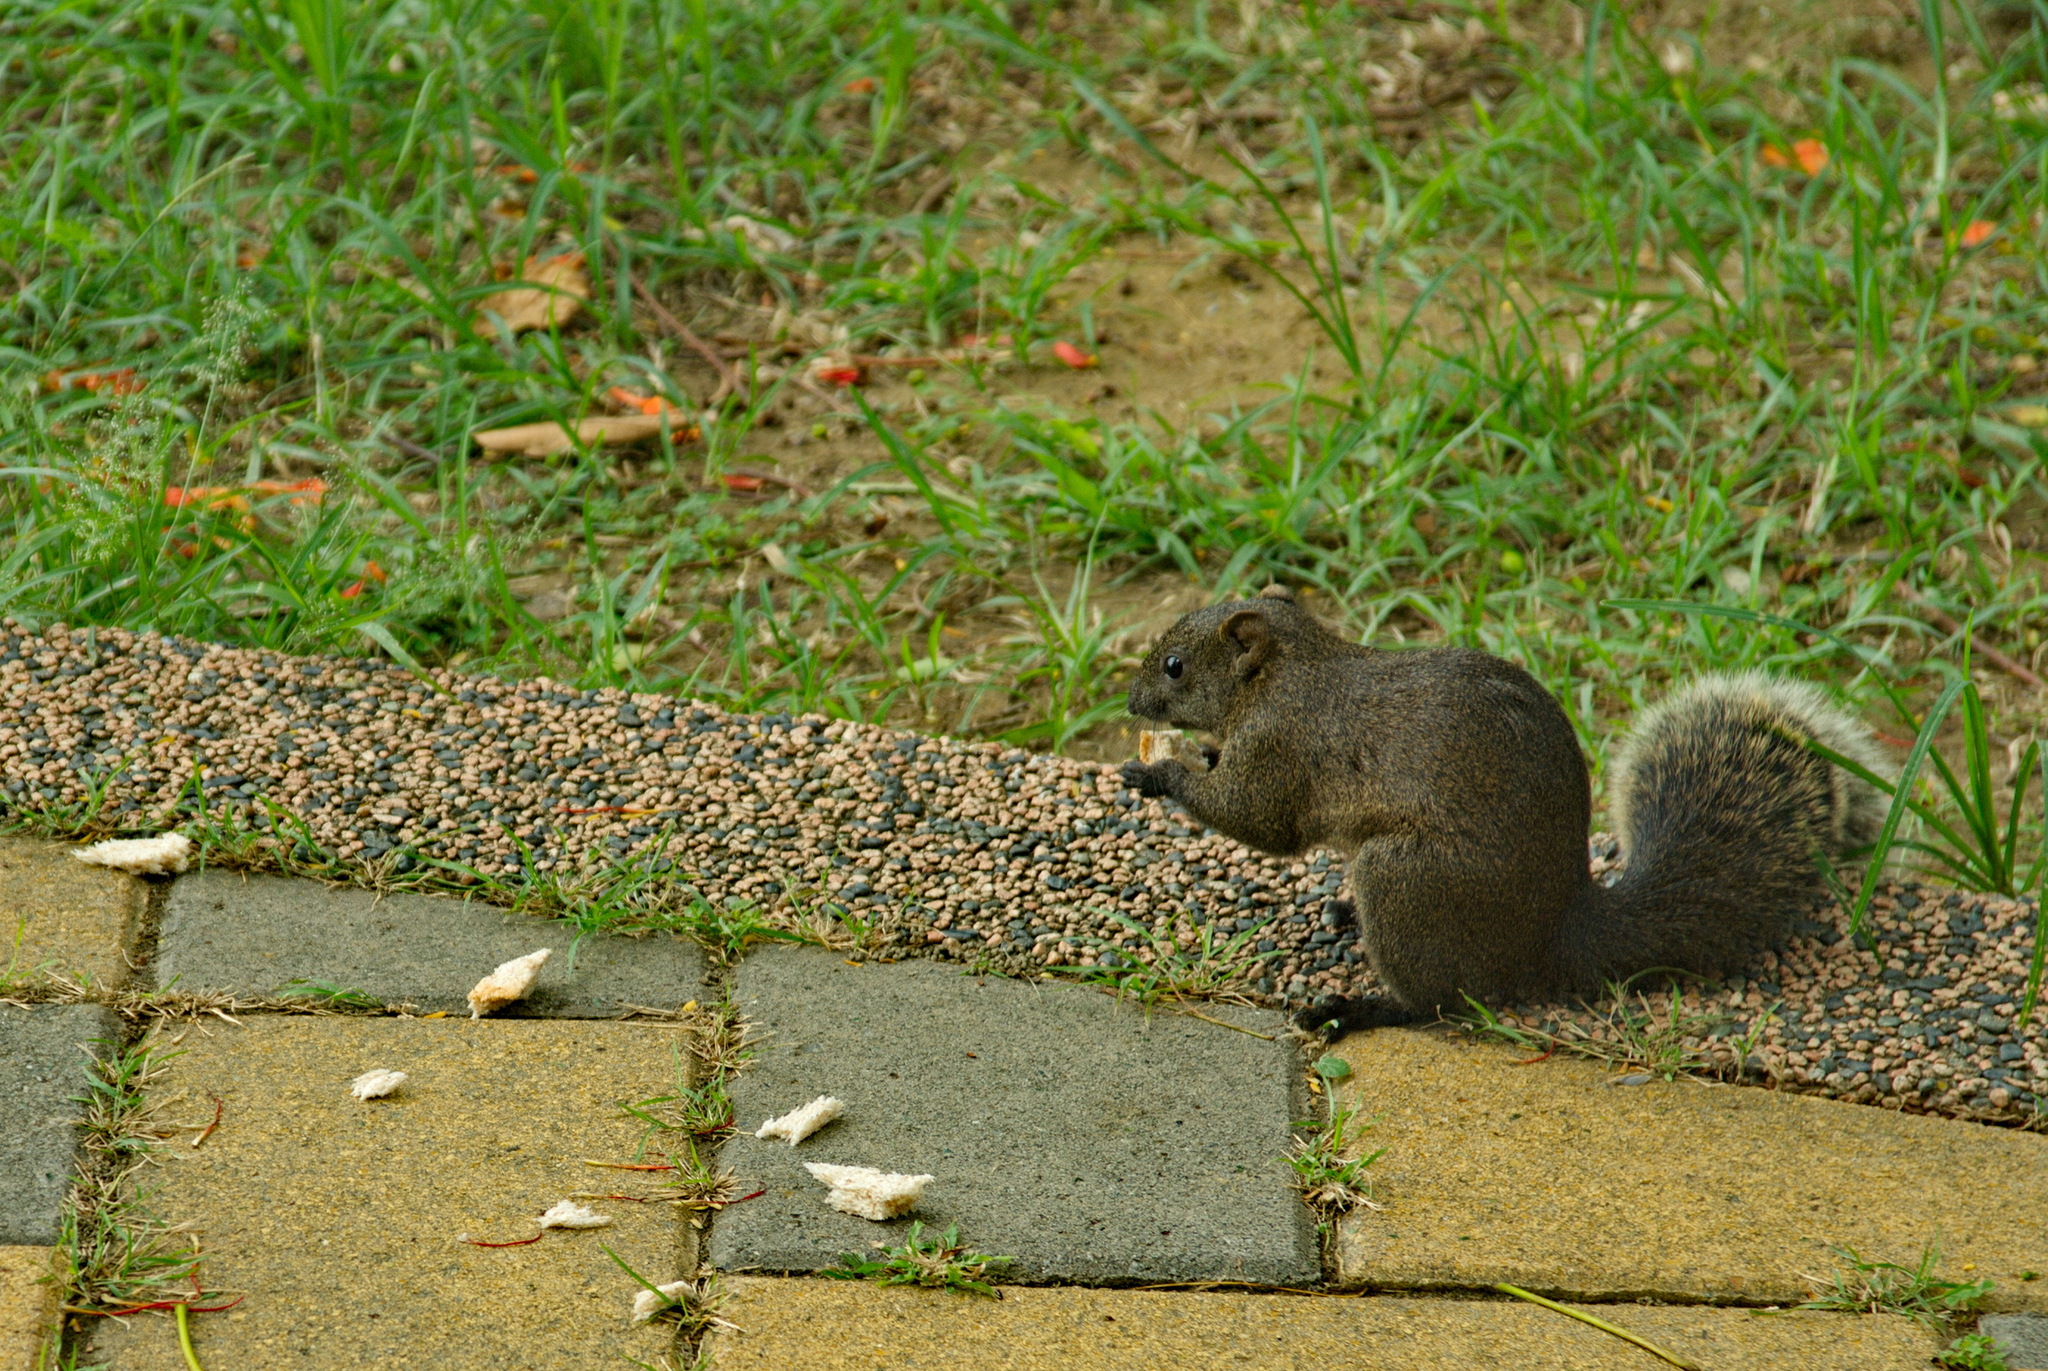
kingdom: Animalia
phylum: Chordata
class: Mammalia
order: Rodentia
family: Sciuridae
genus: Callosciurus
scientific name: Callosciurus erythraeus
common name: Pallas's squirrel
